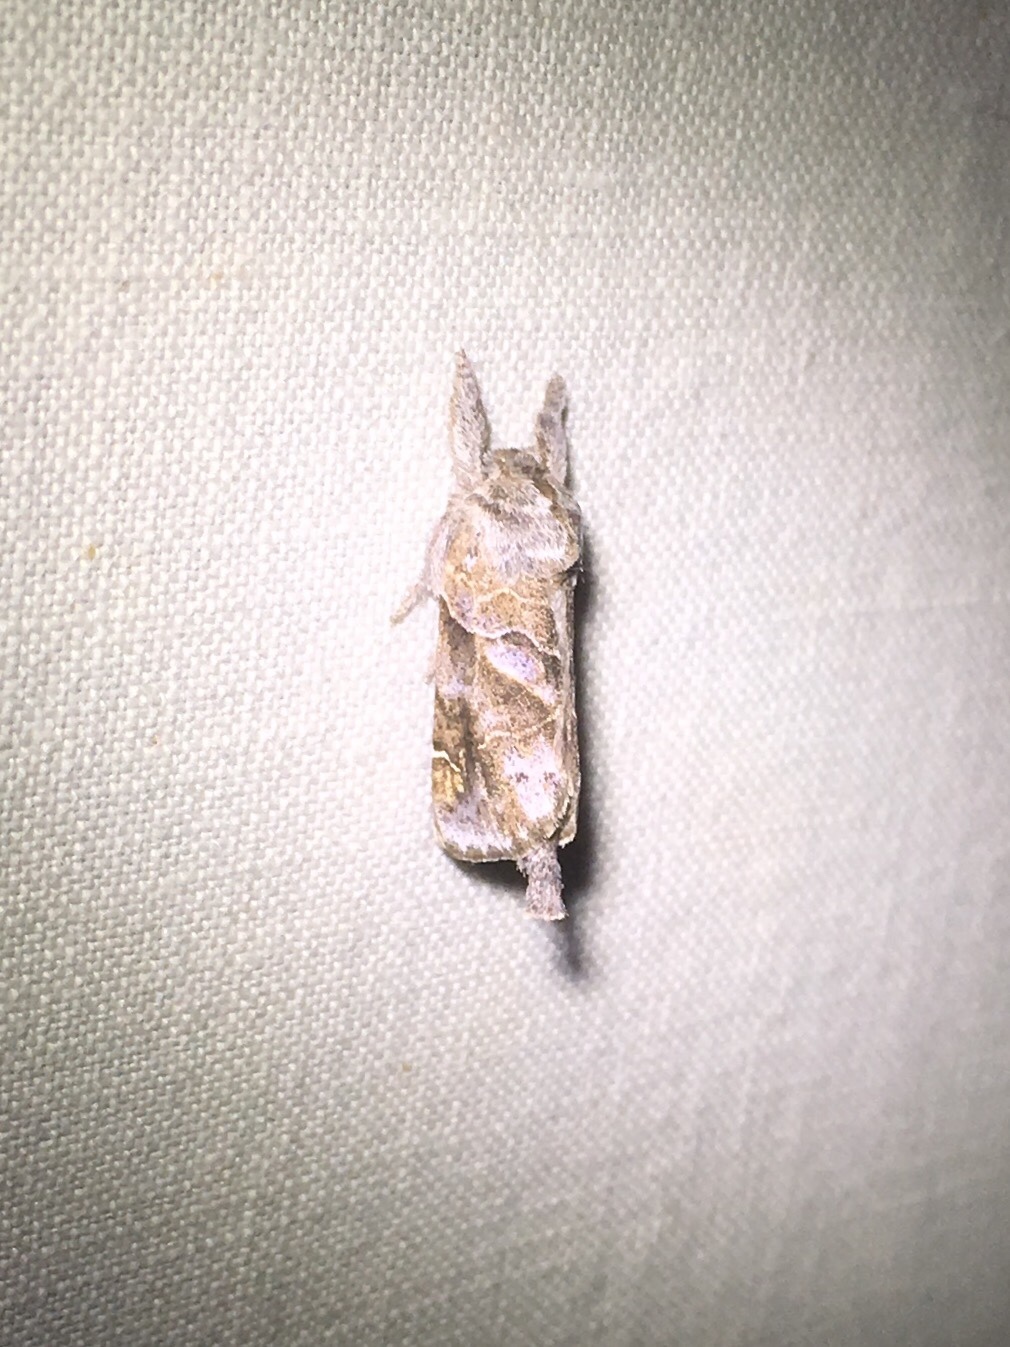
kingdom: Animalia
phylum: Arthropoda
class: Insecta
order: Lepidoptera
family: Notodontidae
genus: Clostera
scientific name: Clostera strigosa
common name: Striped chocolate-tip moth
